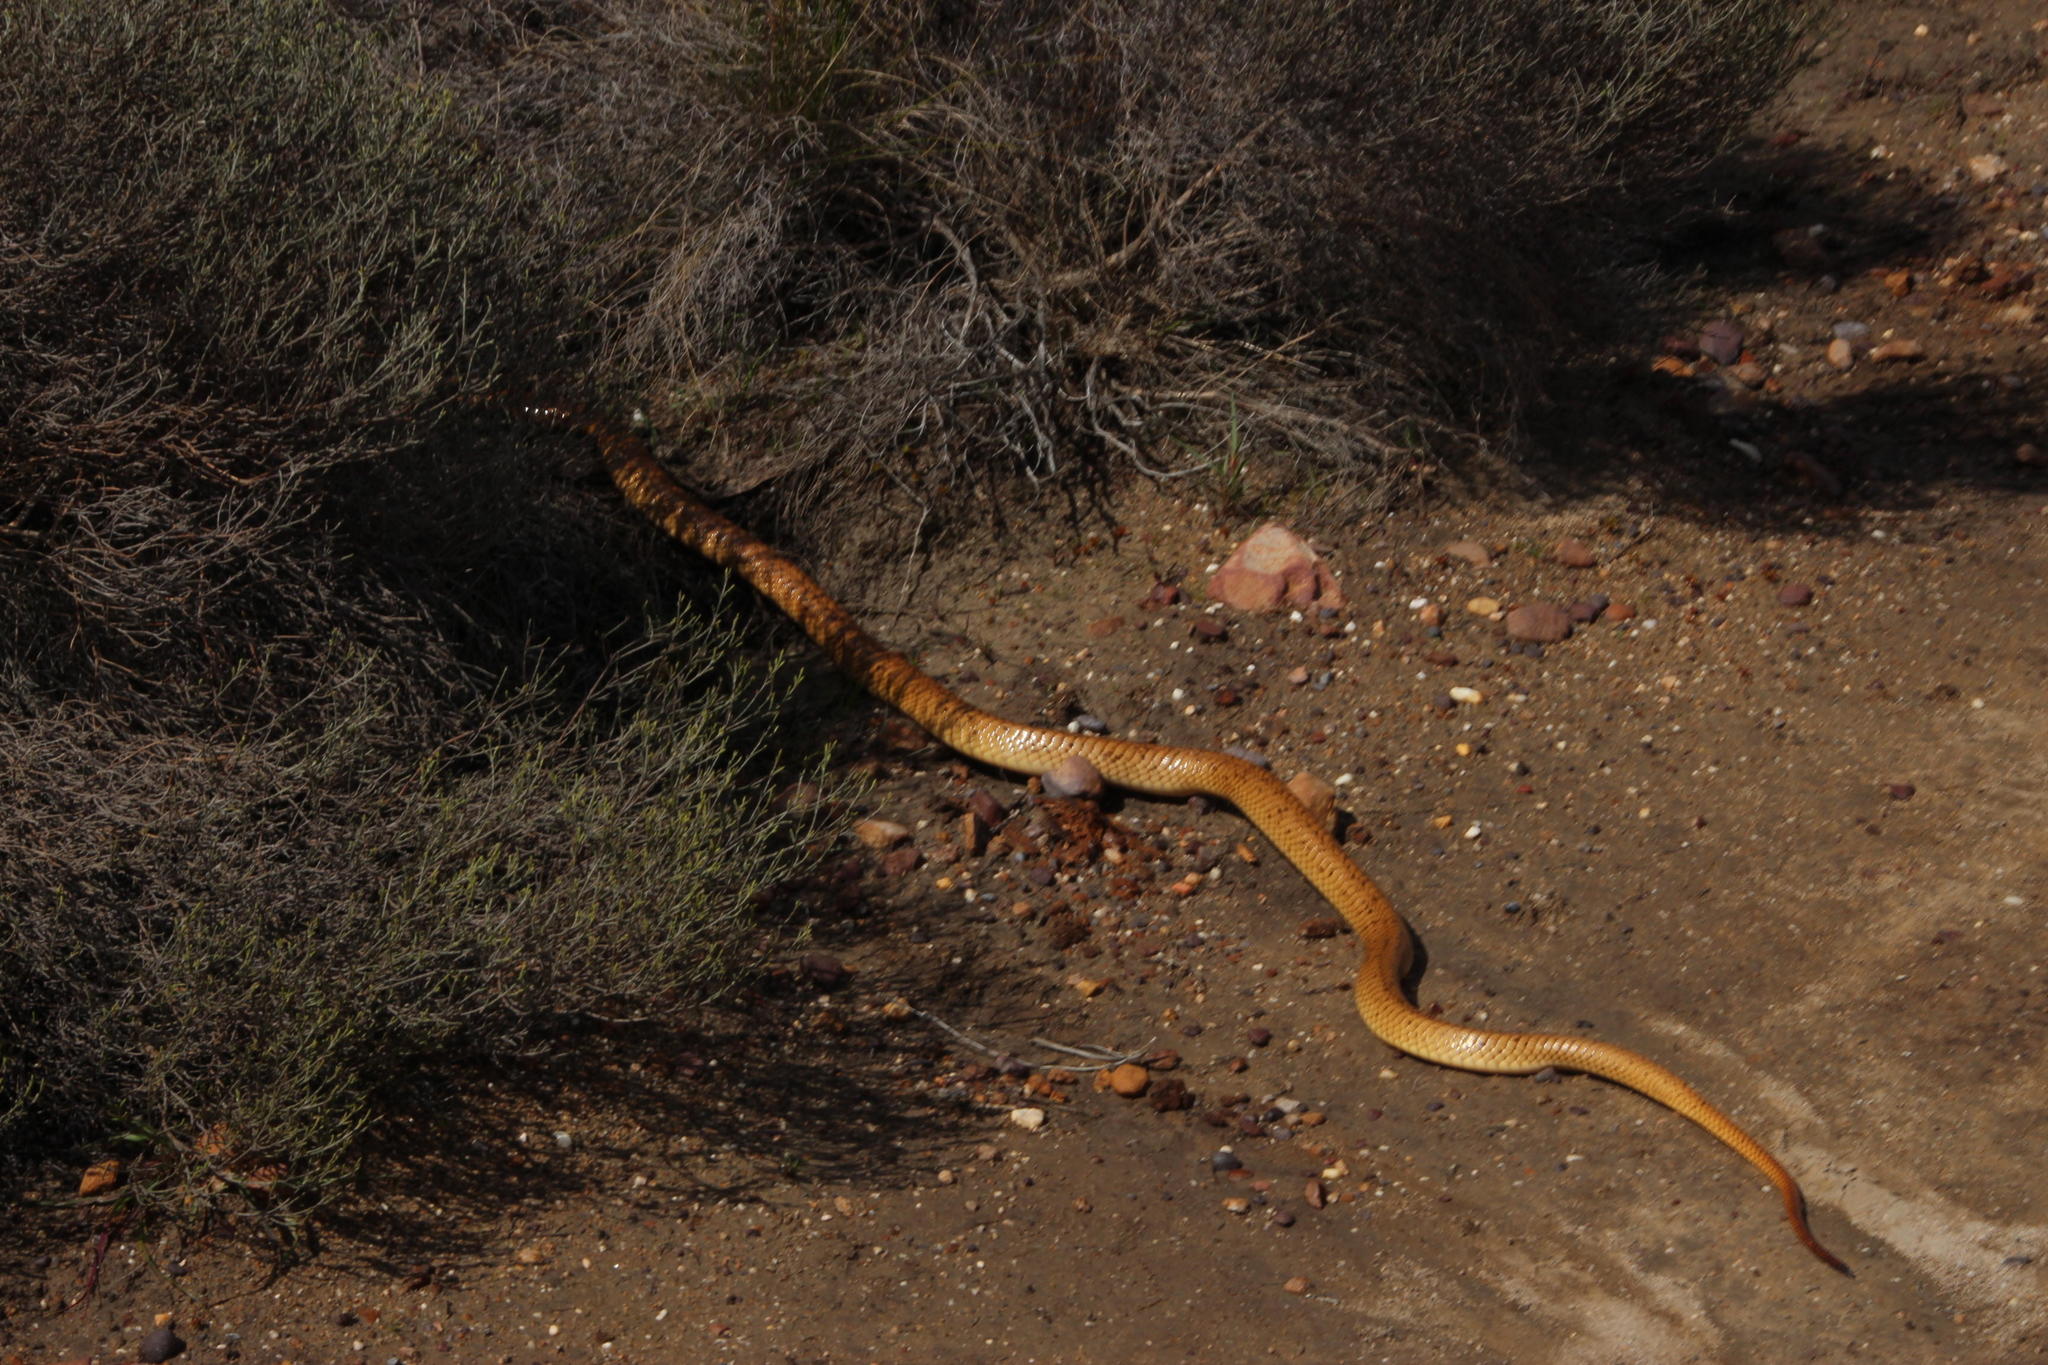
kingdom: Animalia
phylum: Chordata
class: Squamata
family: Elapidae
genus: Naja
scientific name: Naja nivea
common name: Cape cobra
